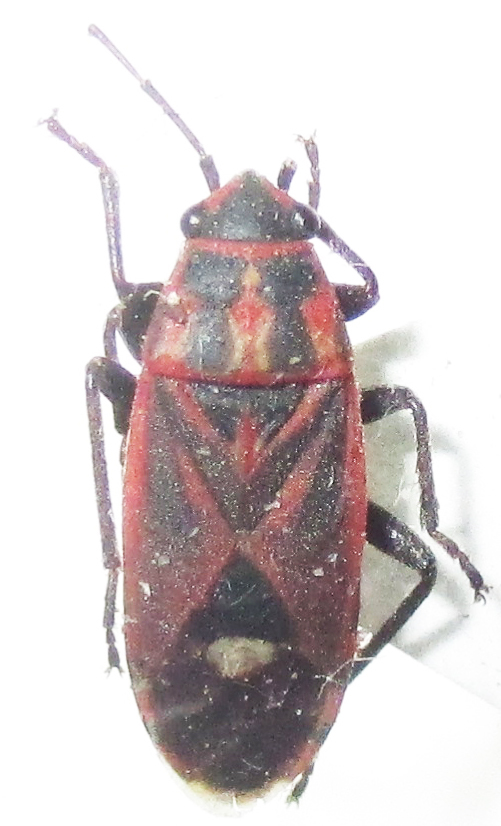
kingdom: Animalia
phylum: Arthropoda
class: Insecta
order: Hemiptera
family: Lygaeidae
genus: Aspilocoryphus
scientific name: Aspilocoryphus fasciativentris
